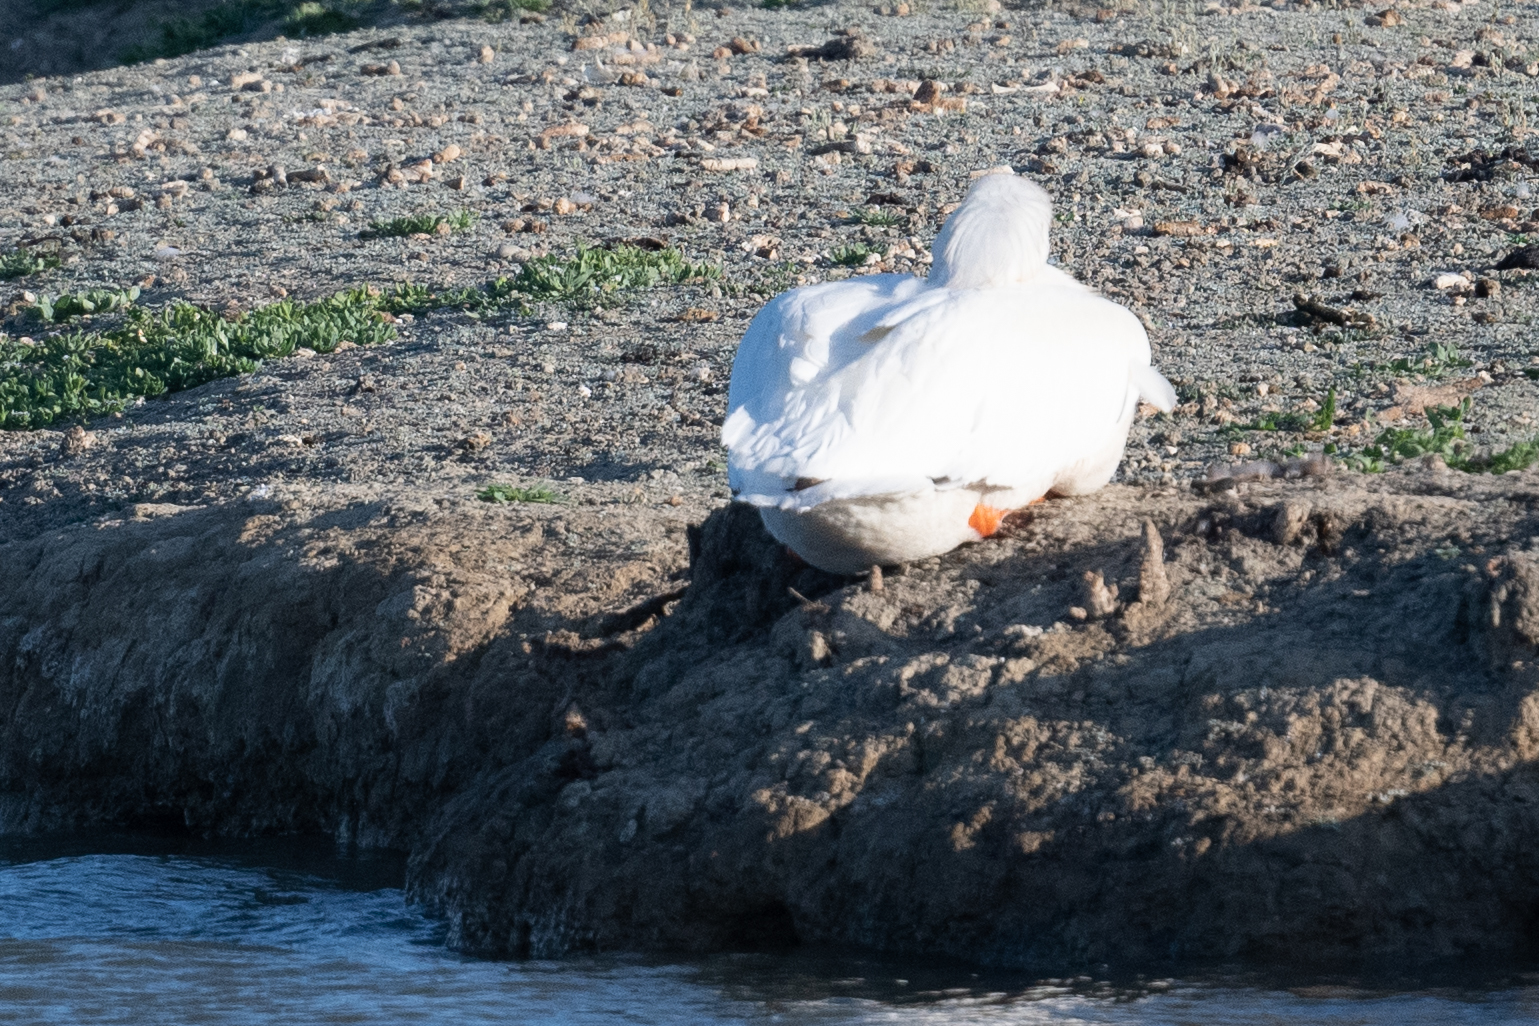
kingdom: Animalia
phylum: Chordata
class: Aves
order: Pelecaniformes
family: Pelecanidae
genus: Pelecanus
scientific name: Pelecanus erythrorhynchos
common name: American white pelican
